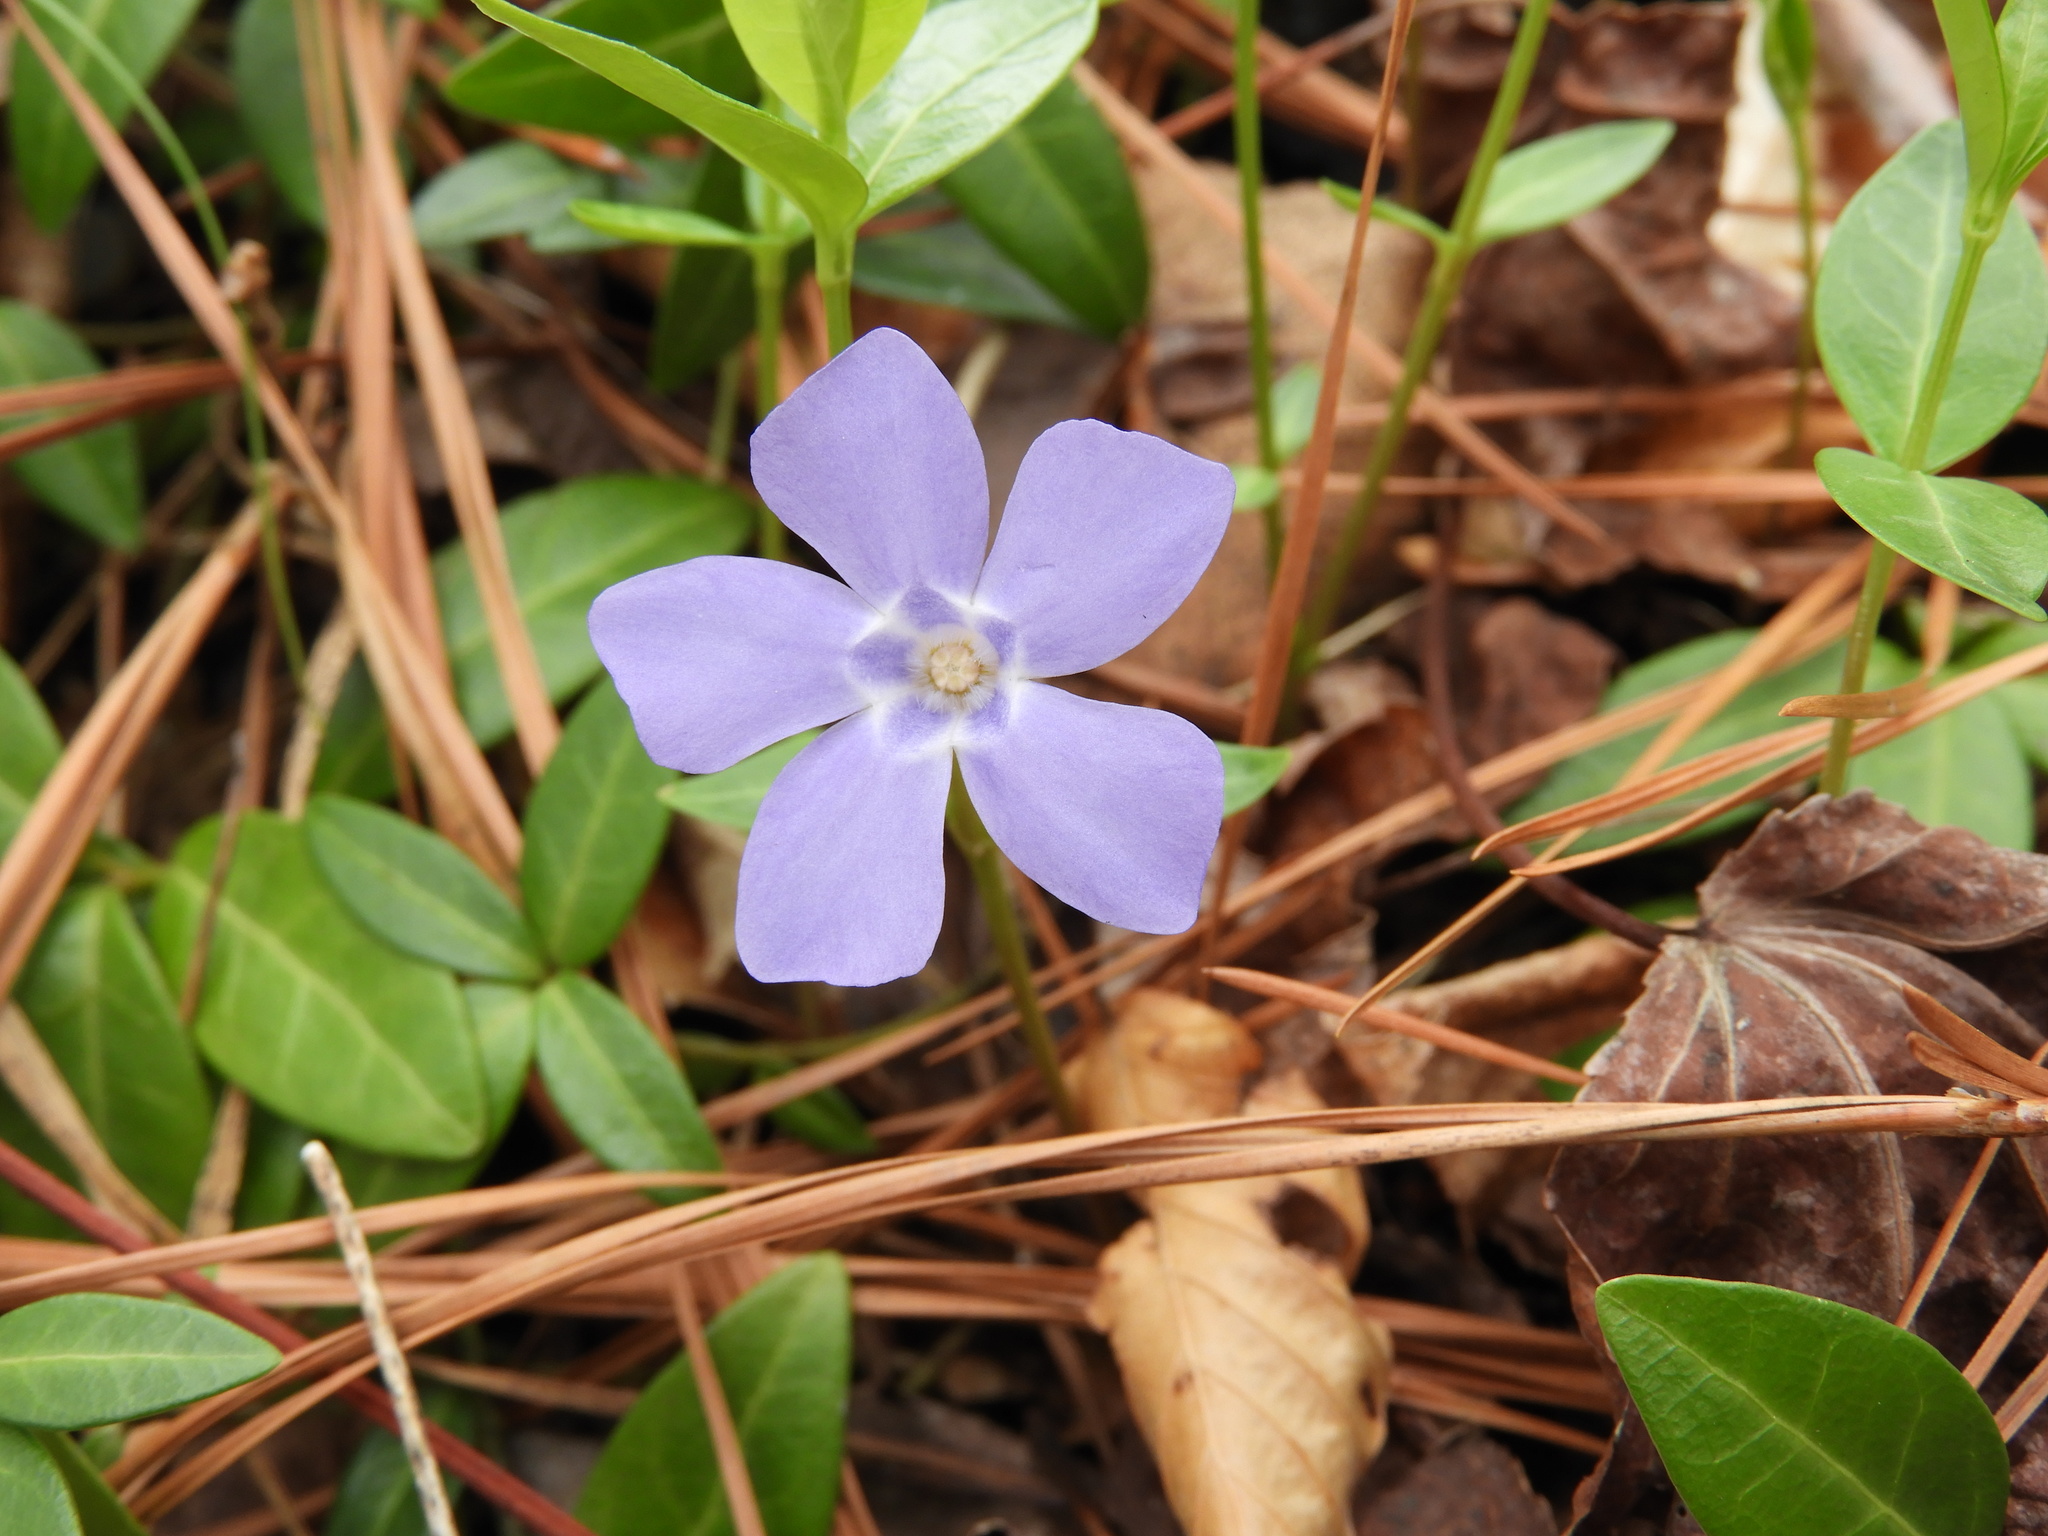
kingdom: Plantae
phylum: Tracheophyta
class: Magnoliopsida
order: Gentianales
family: Apocynaceae
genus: Vinca
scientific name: Vinca minor
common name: Lesser periwinkle
